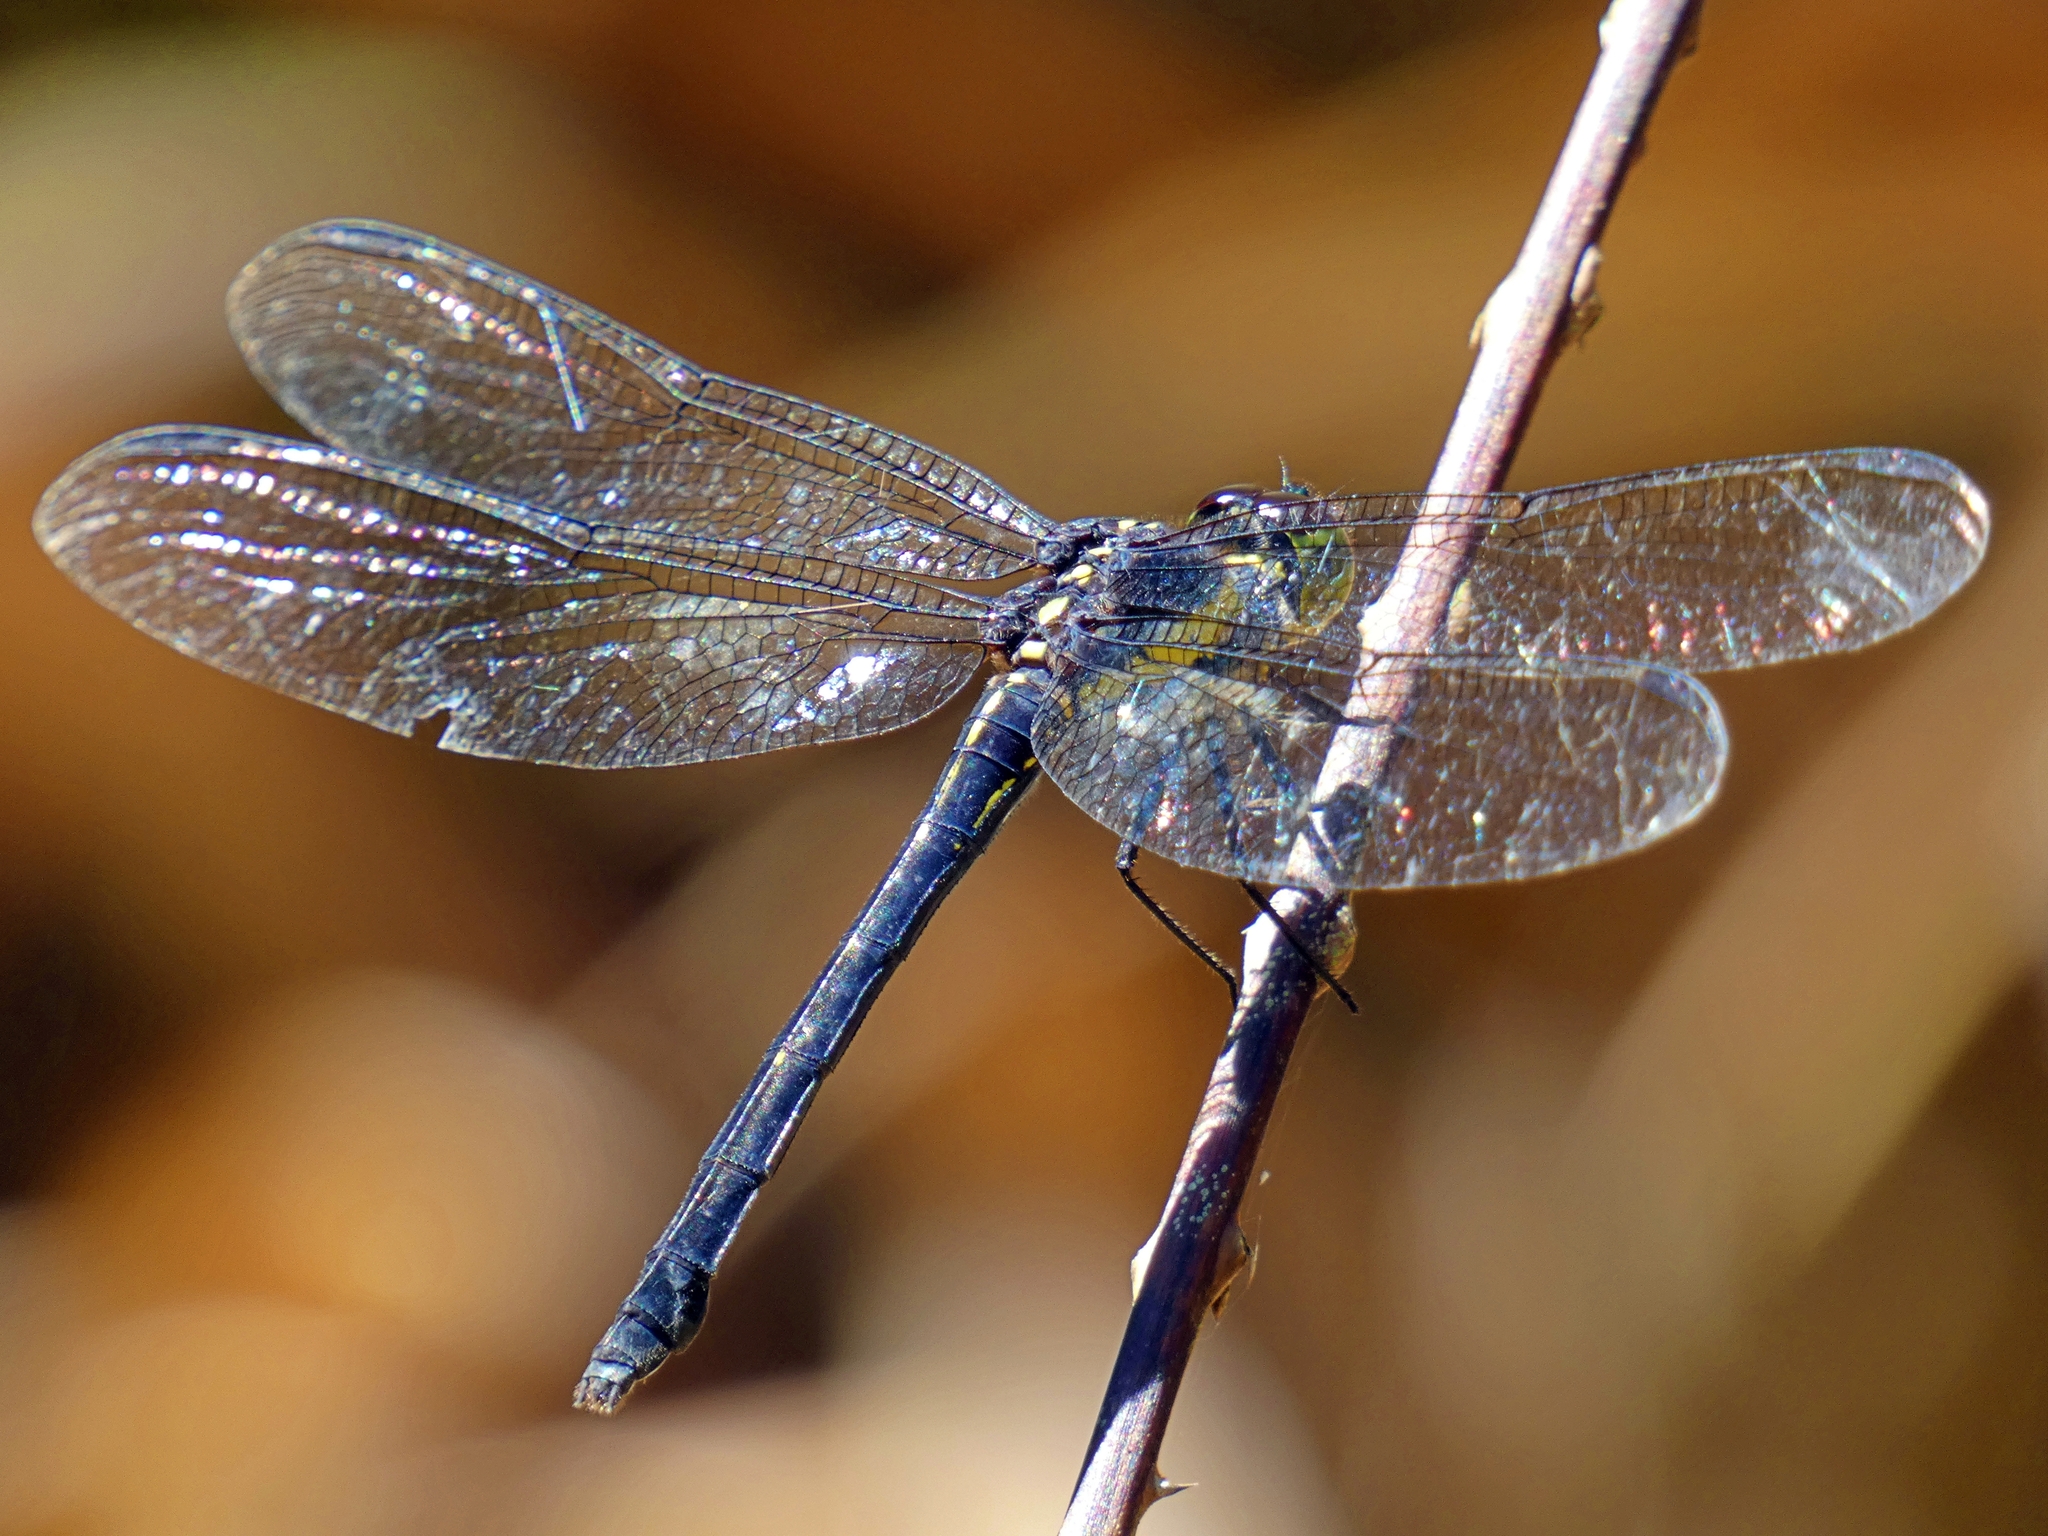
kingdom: Animalia
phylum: Arthropoda
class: Insecta
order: Odonata
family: Libellulidae
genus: Agrionoptera
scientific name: Agrionoptera longitudinalis
